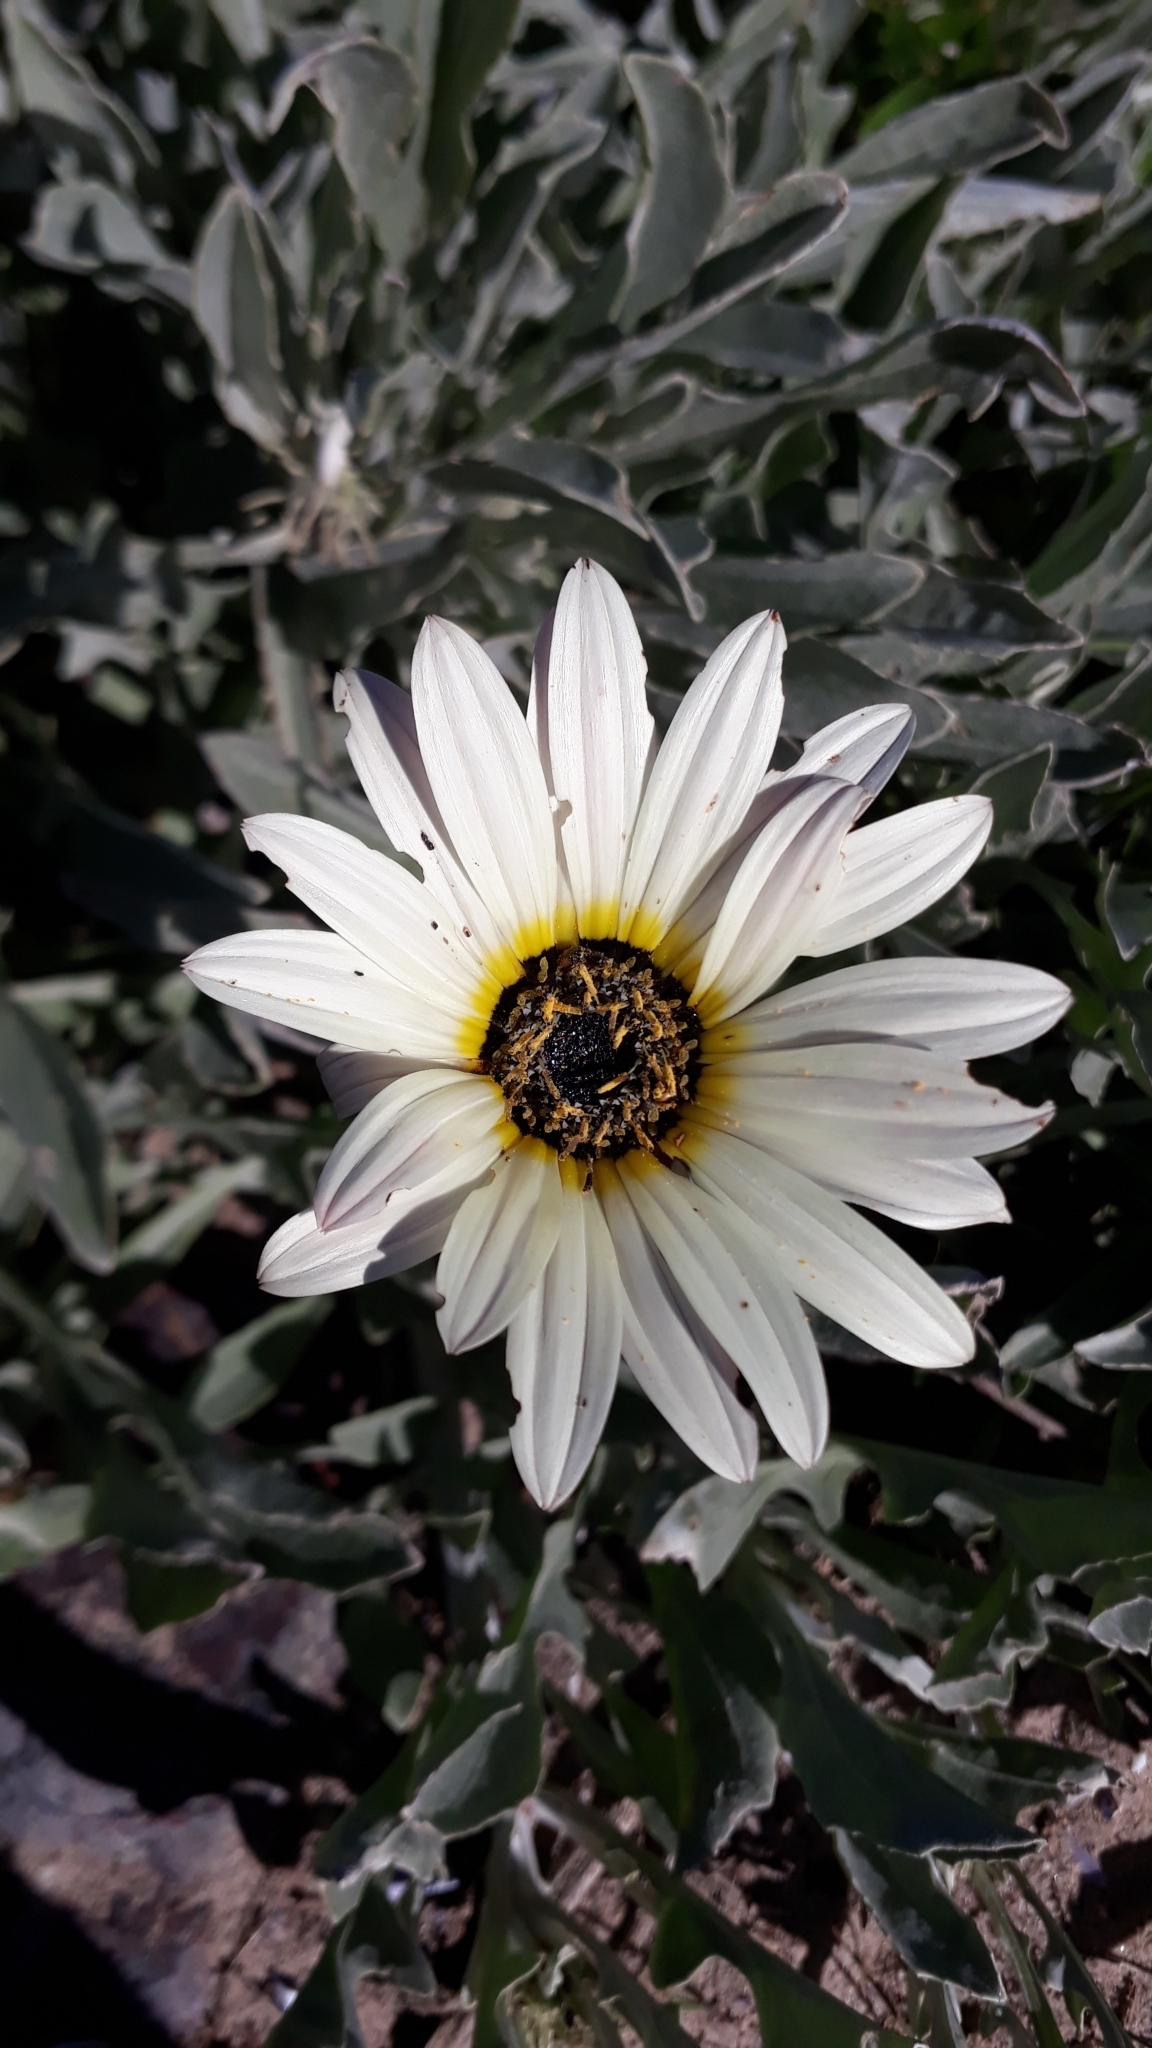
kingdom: Plantae
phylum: Tracheophyta
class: Magnoliopsida
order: Asterales
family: Asteraceae
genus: Arctotis
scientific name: Arctotis stoechadifolia
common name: African daisy
